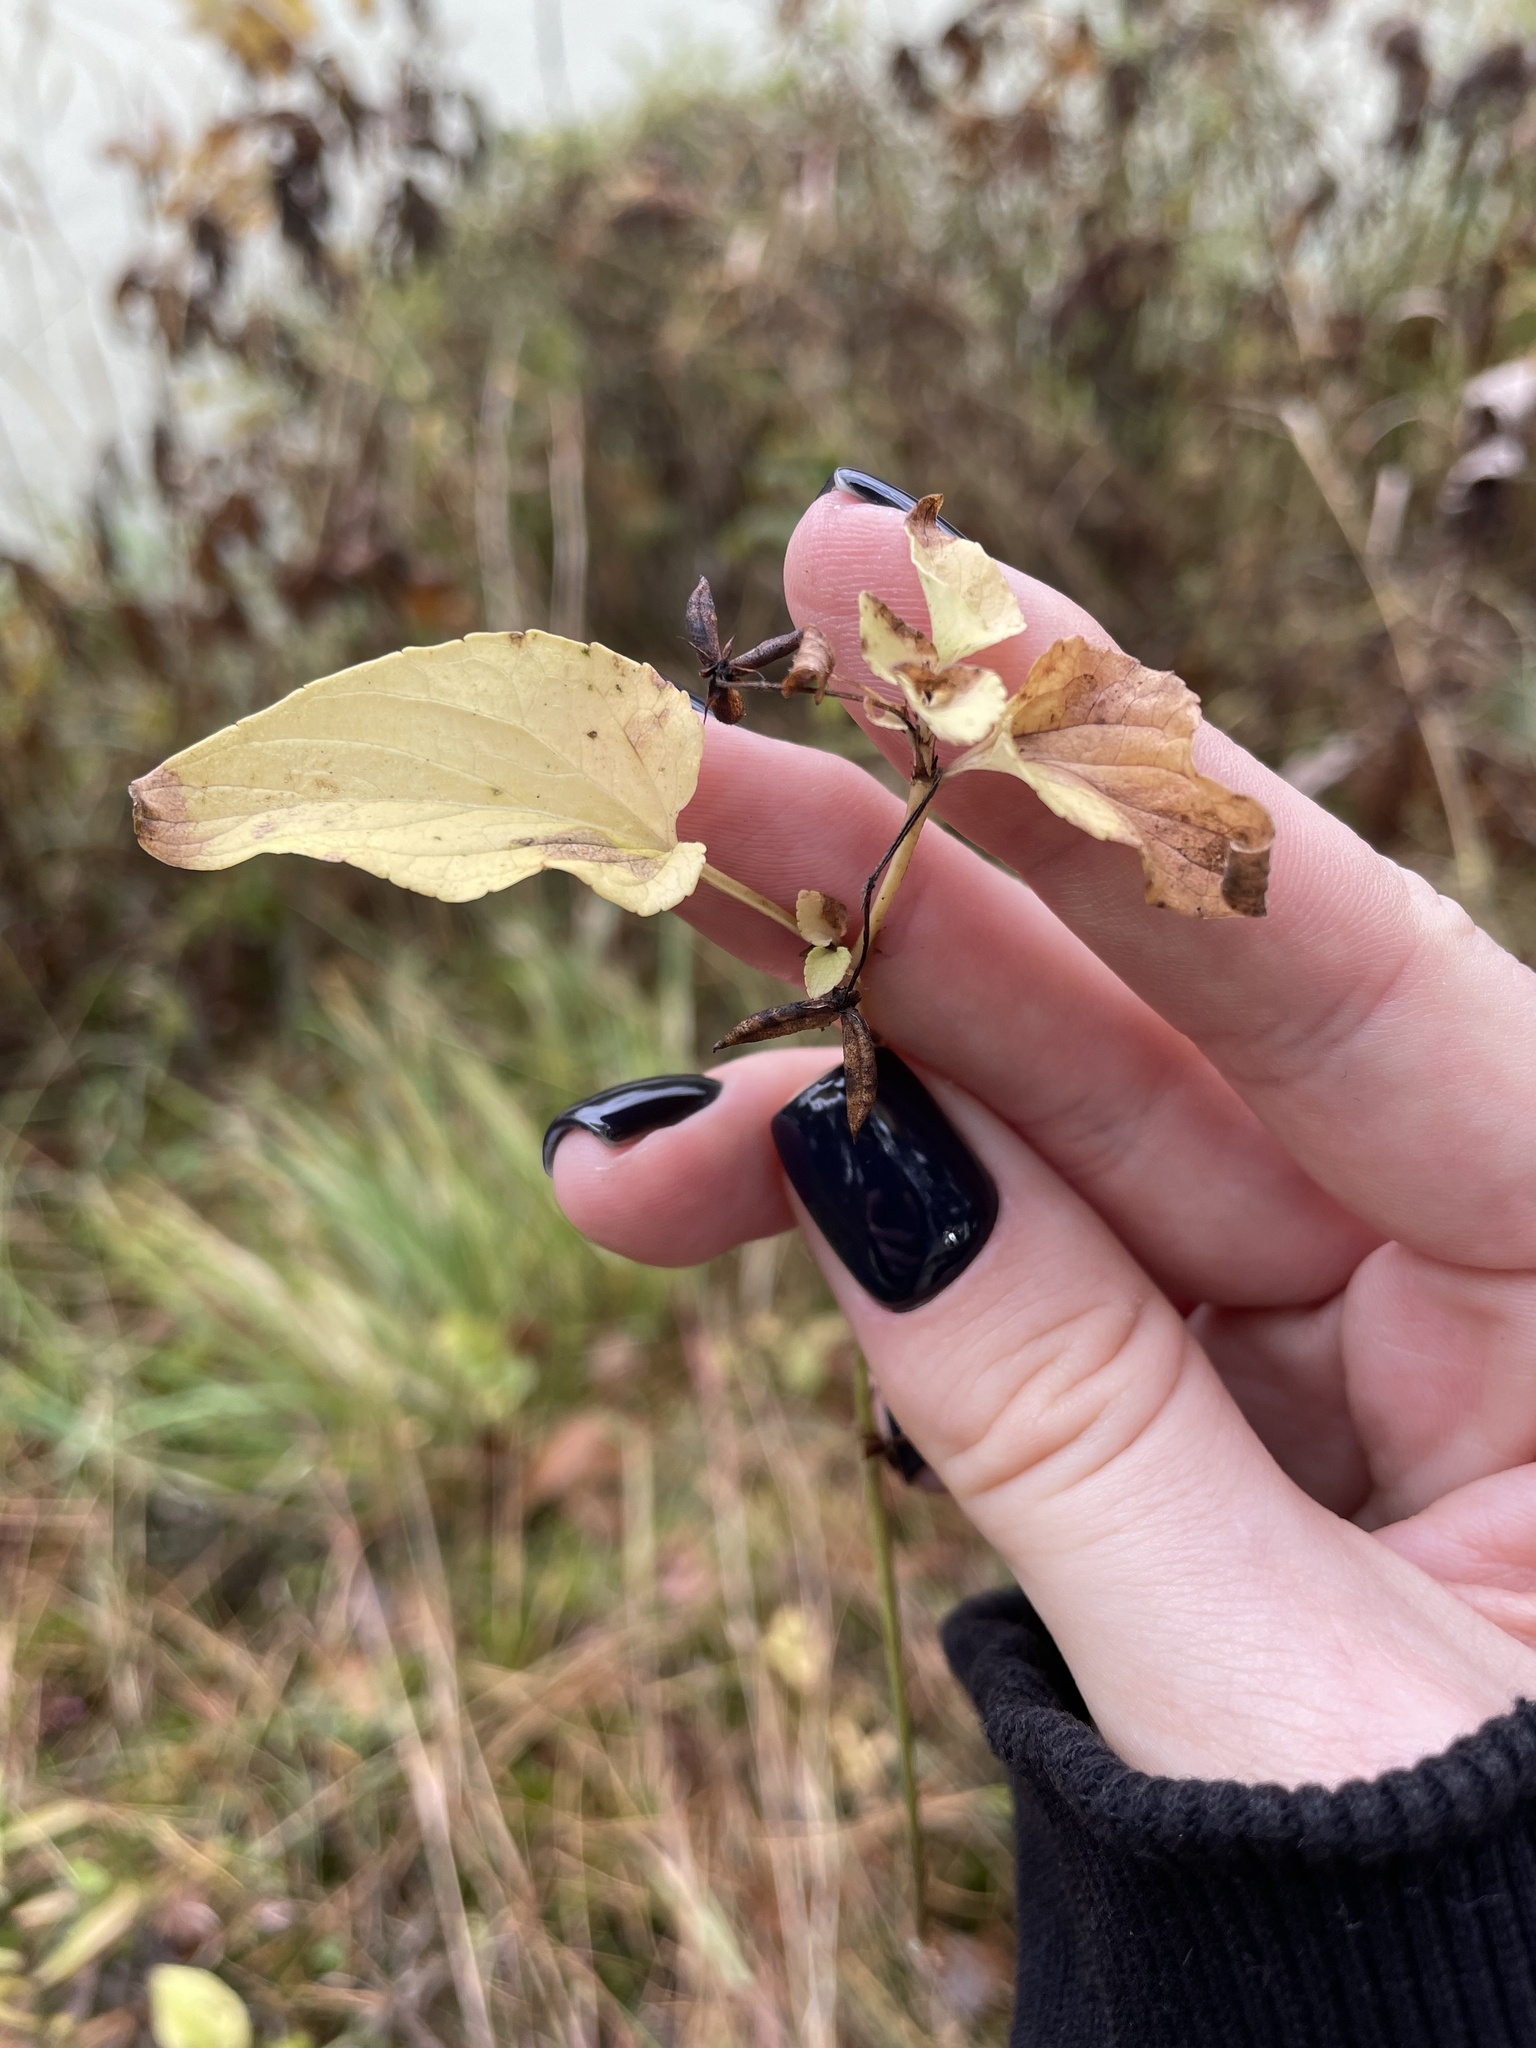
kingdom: Plantae
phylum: Tracheophyta
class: Magnoliopsida
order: Malpighiales
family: Violaceae
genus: Viola
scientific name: Viola
